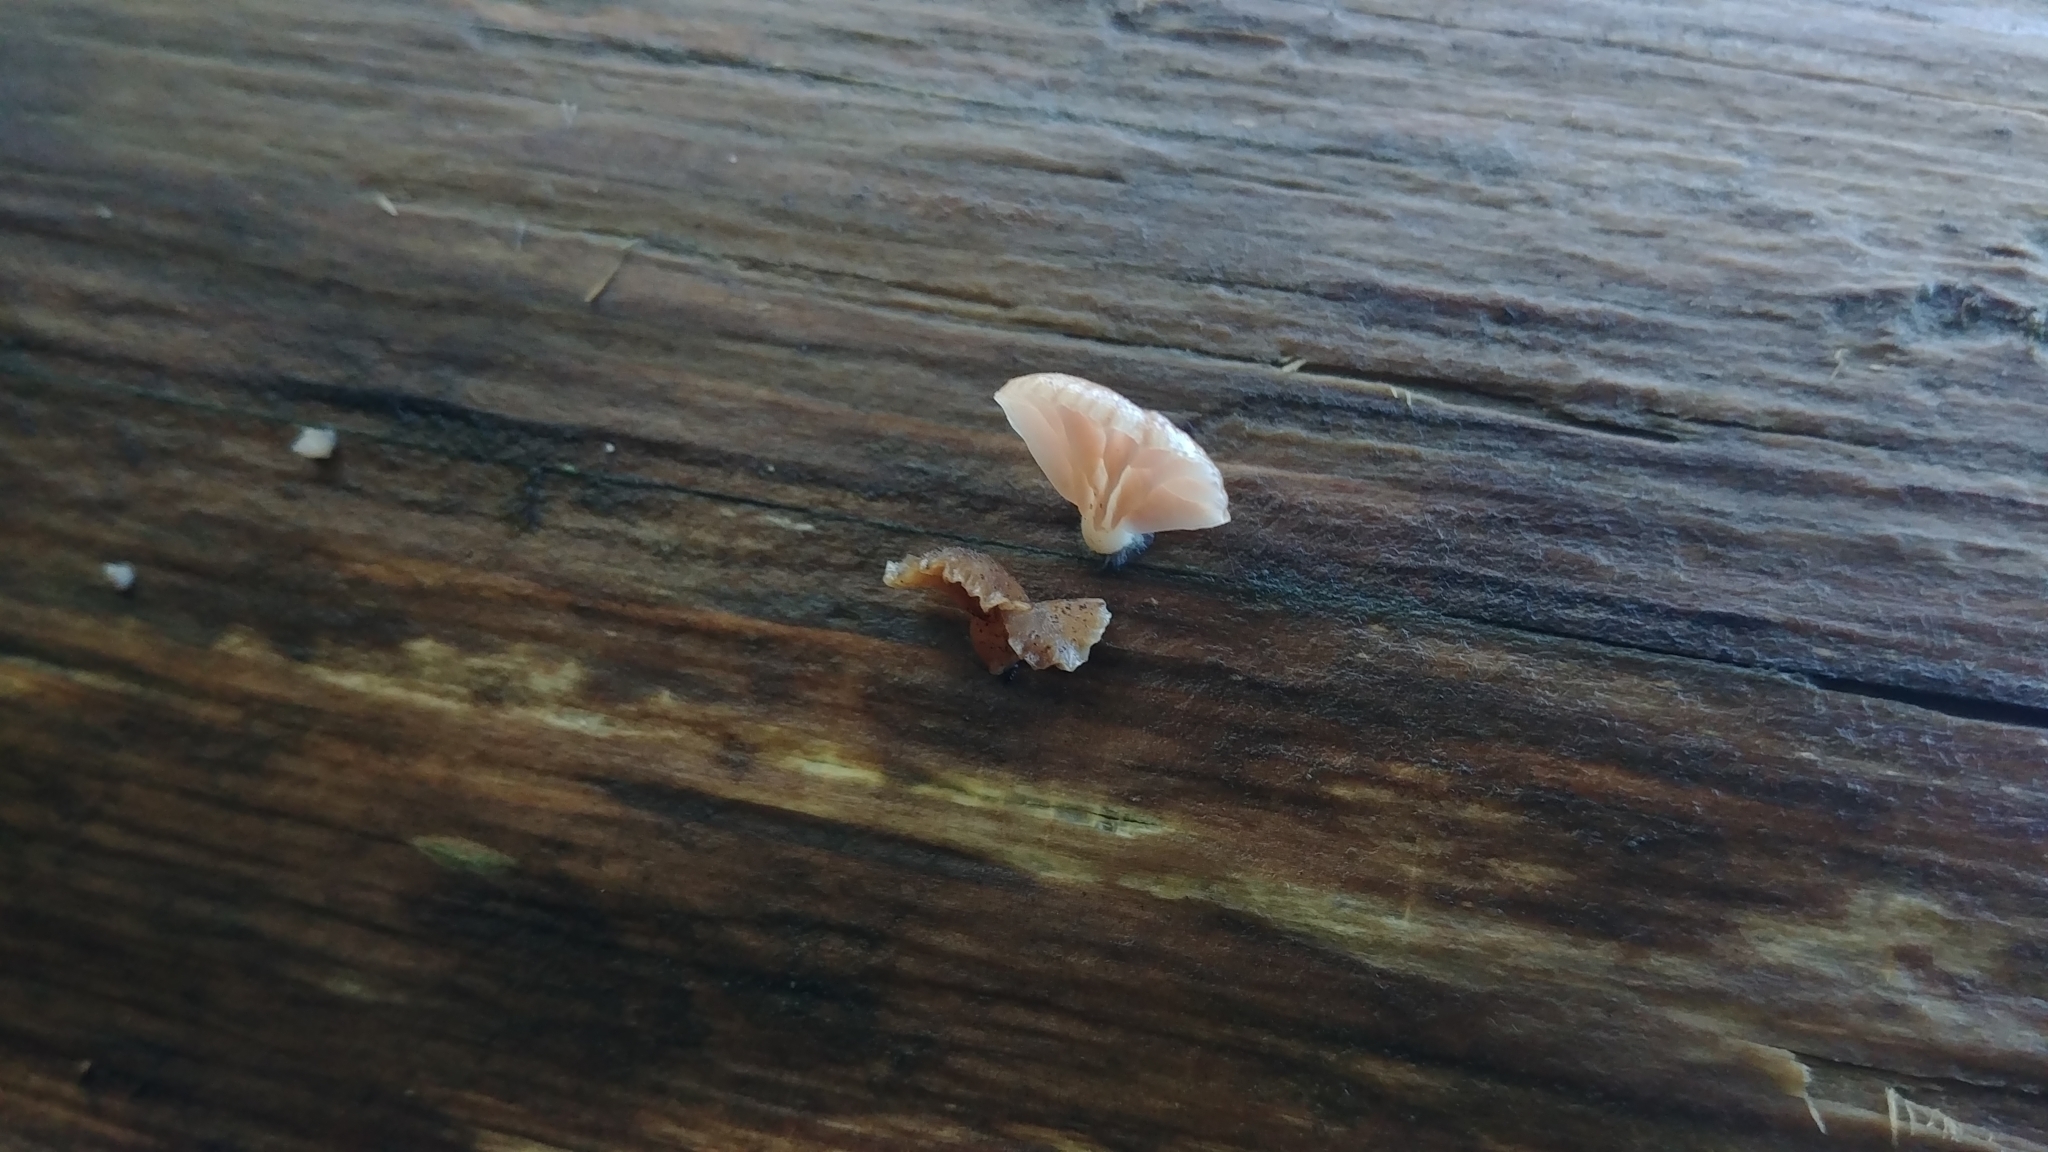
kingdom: Fungi
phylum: Basidiomycota
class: Agaricomycetes
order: Agaricales
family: Mycenaceae
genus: Panellus
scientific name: Panellus longinquus
